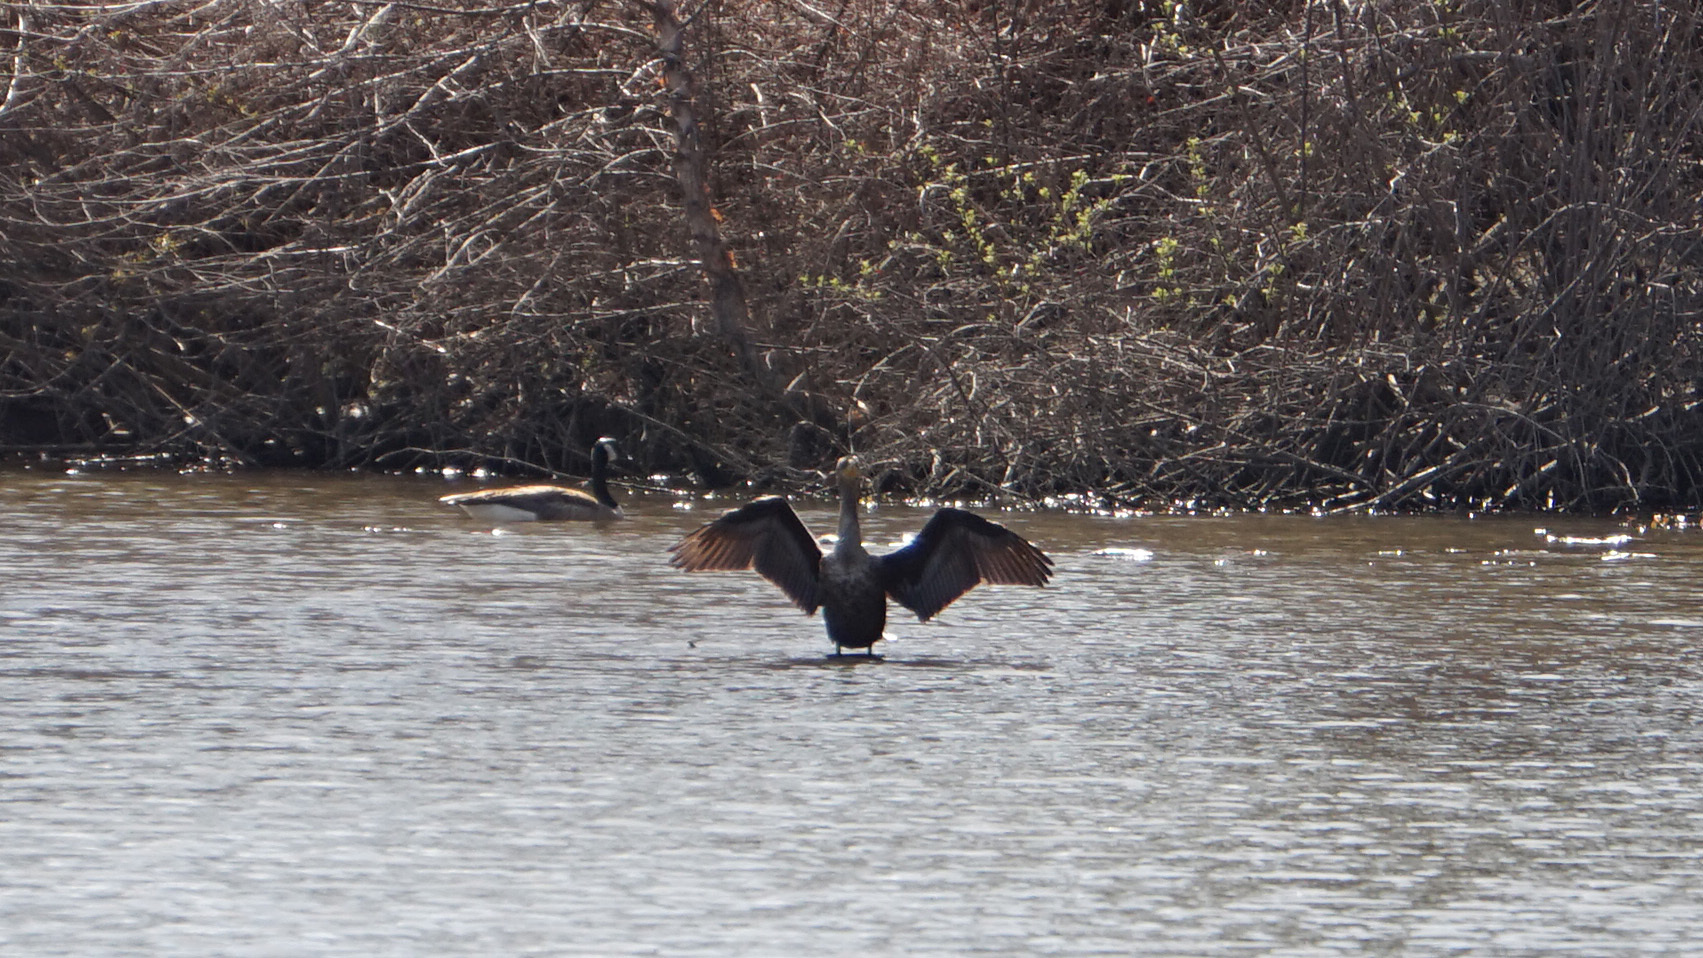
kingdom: Animalia
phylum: Chordata
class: Aves
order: Suliformes
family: Phalacrocoracidae
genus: Phalacrocorax
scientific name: Phalacrocorax auritus
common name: Double-crested cormorant
